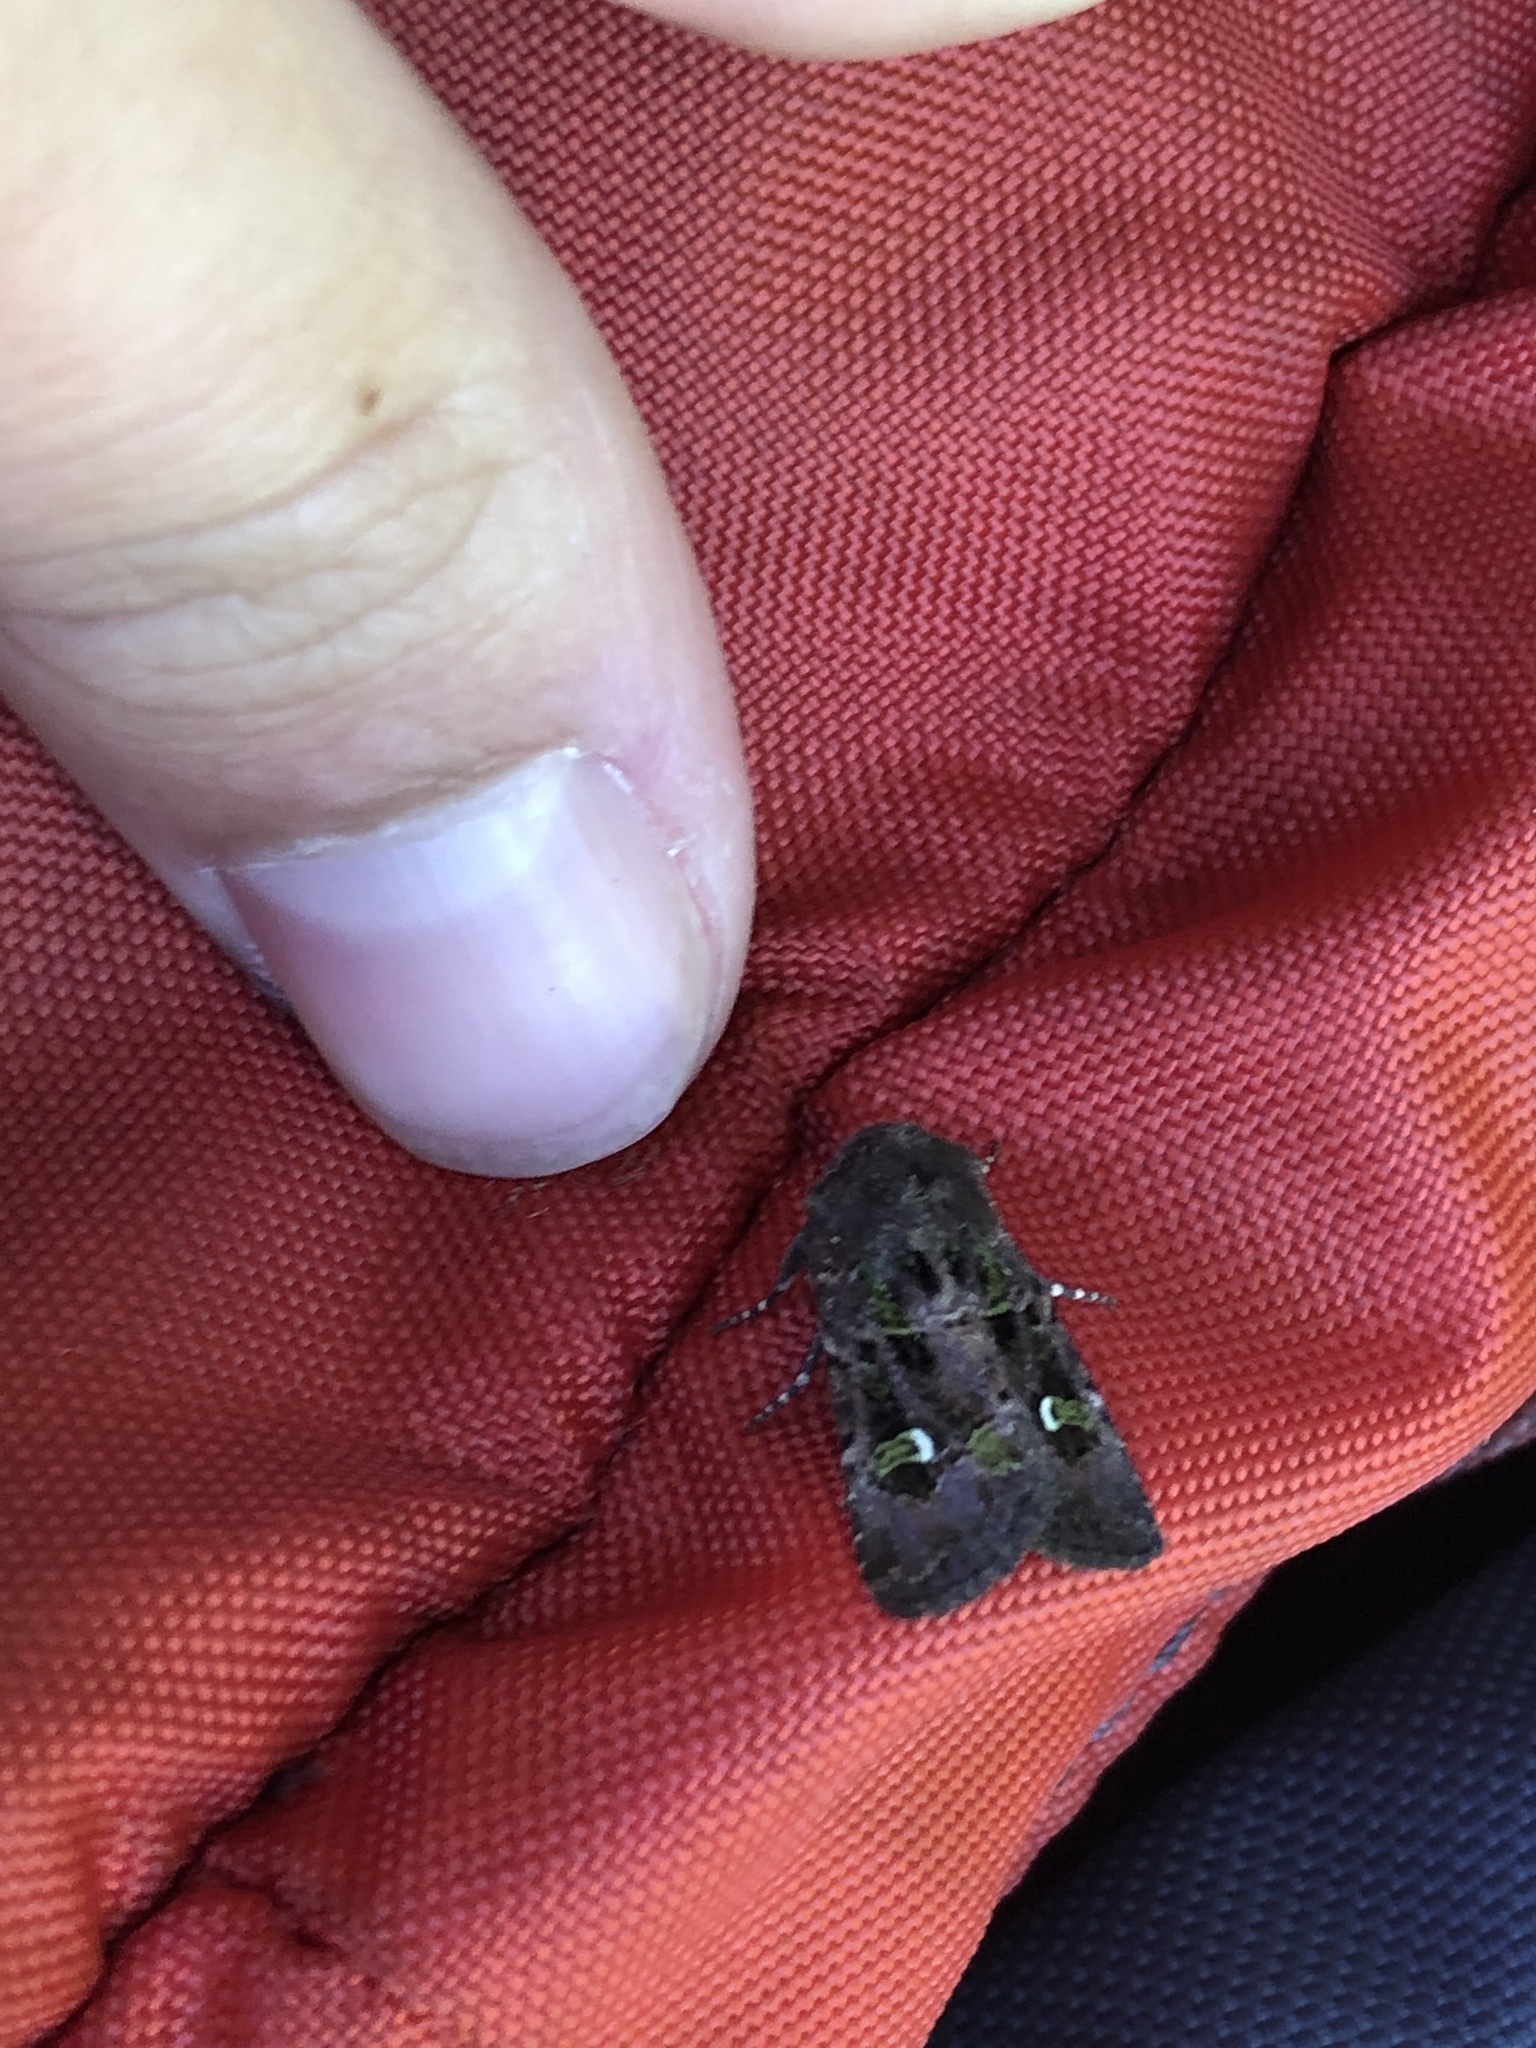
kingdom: Animalia
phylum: Arthropoda
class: Insecta
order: Lepidoptera
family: Noctuidae
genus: Lacinipolia
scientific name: Lacinipolia renigera
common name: Kidney-spotted minor
